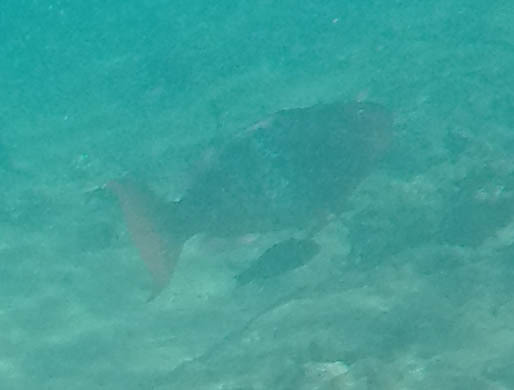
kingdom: Animalia
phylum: Chordata
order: Perciformes
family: Scaridae
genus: Scarus
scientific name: Scarus rubroviolaceus
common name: Ember parrotfish
